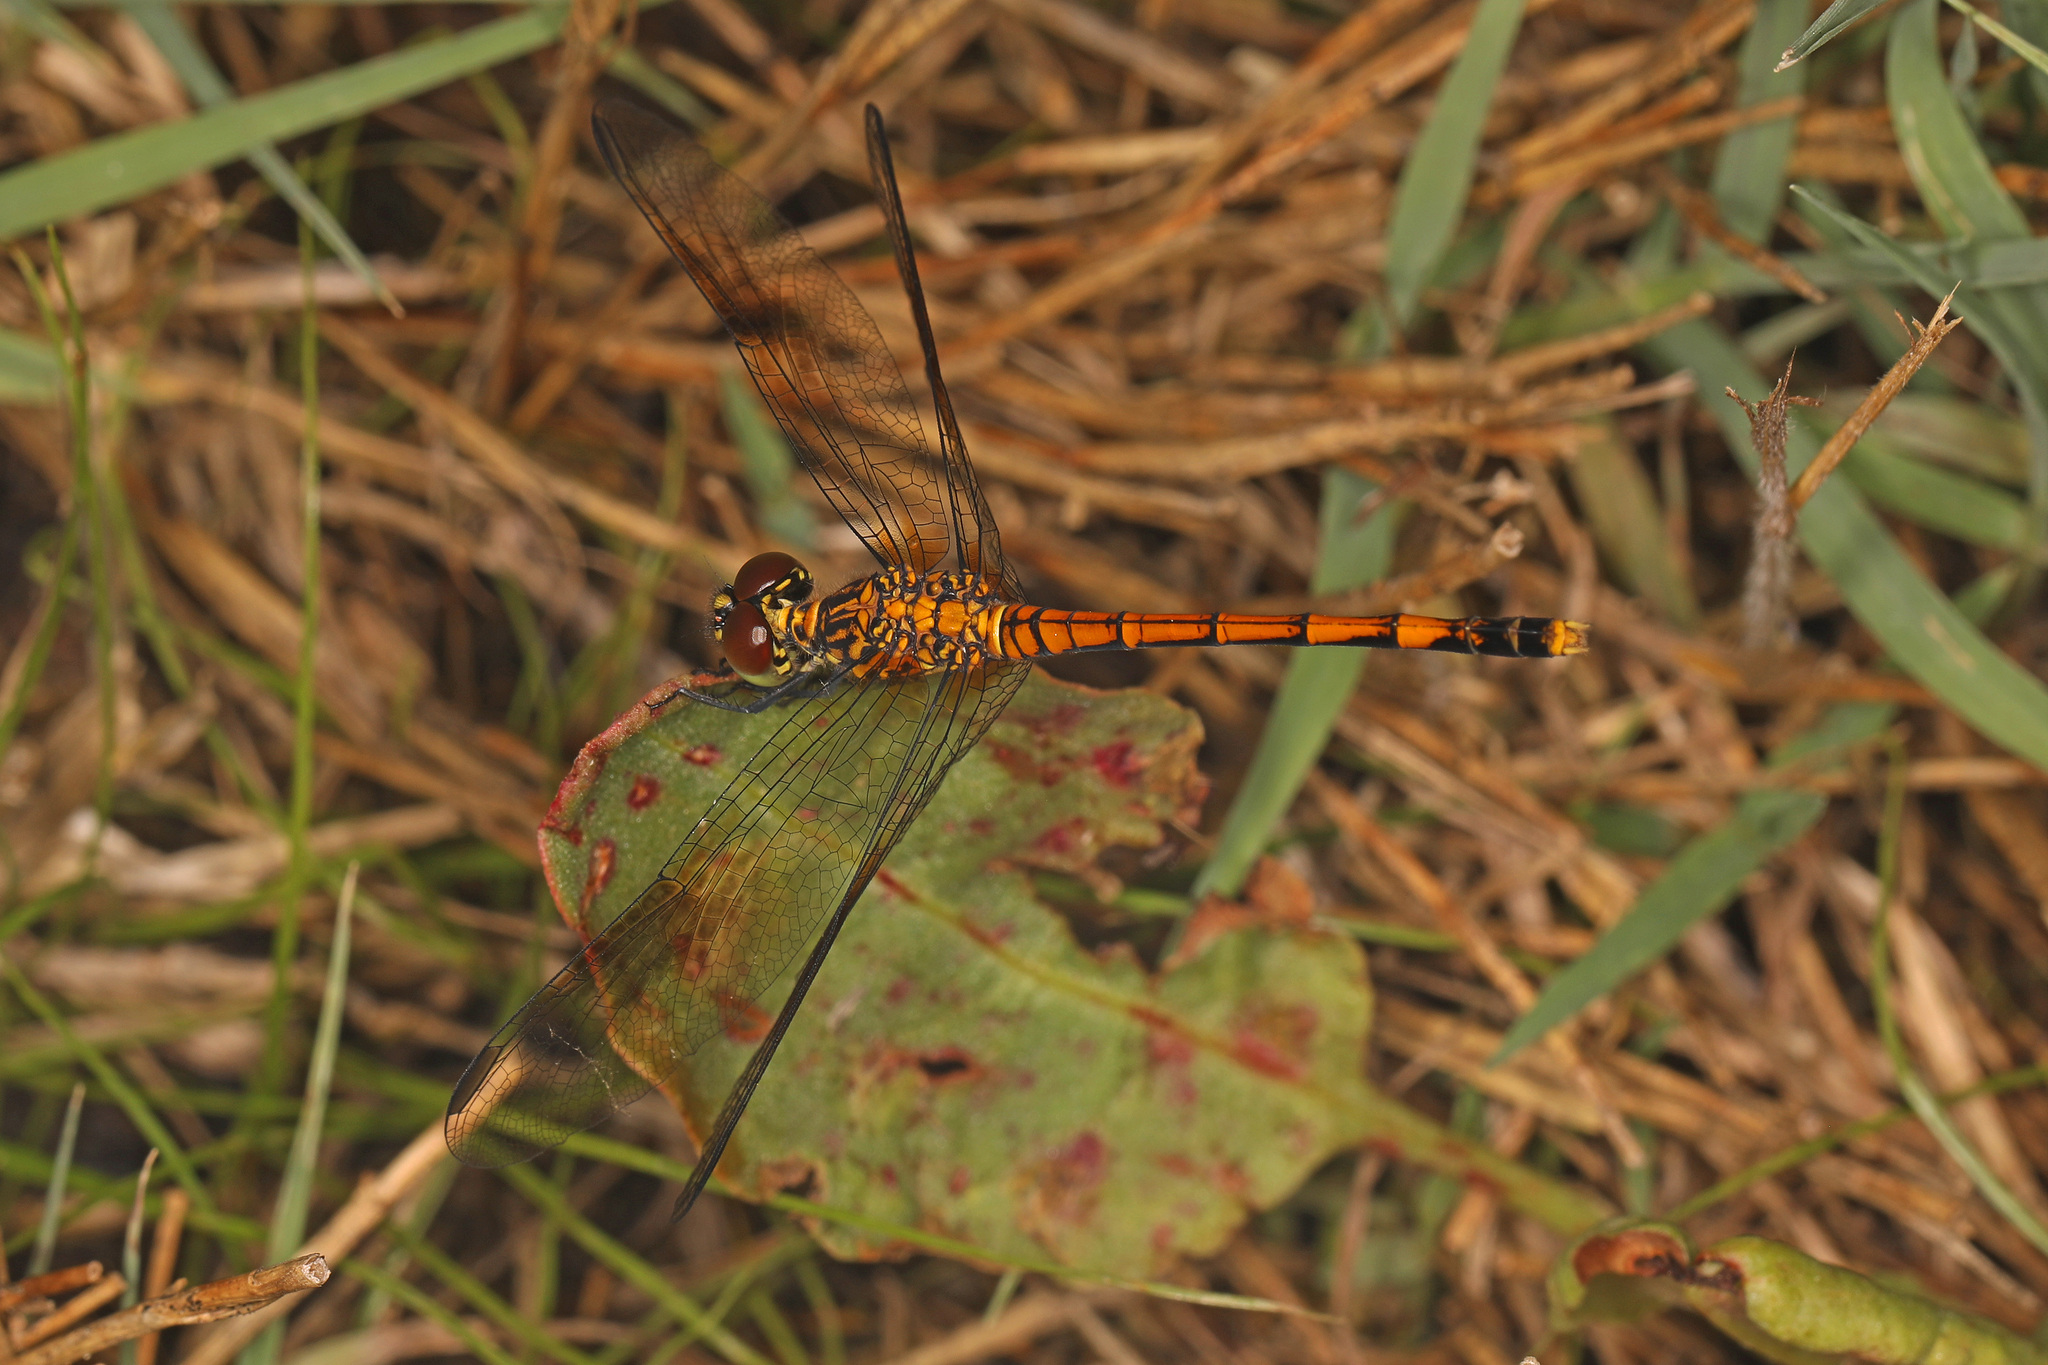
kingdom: Animalia
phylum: Arthropoda
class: Insecta
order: Odonata
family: Libellulidae
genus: Erythrodiplax
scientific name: Erythrodiplax berenice
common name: Seaside dragonlet
